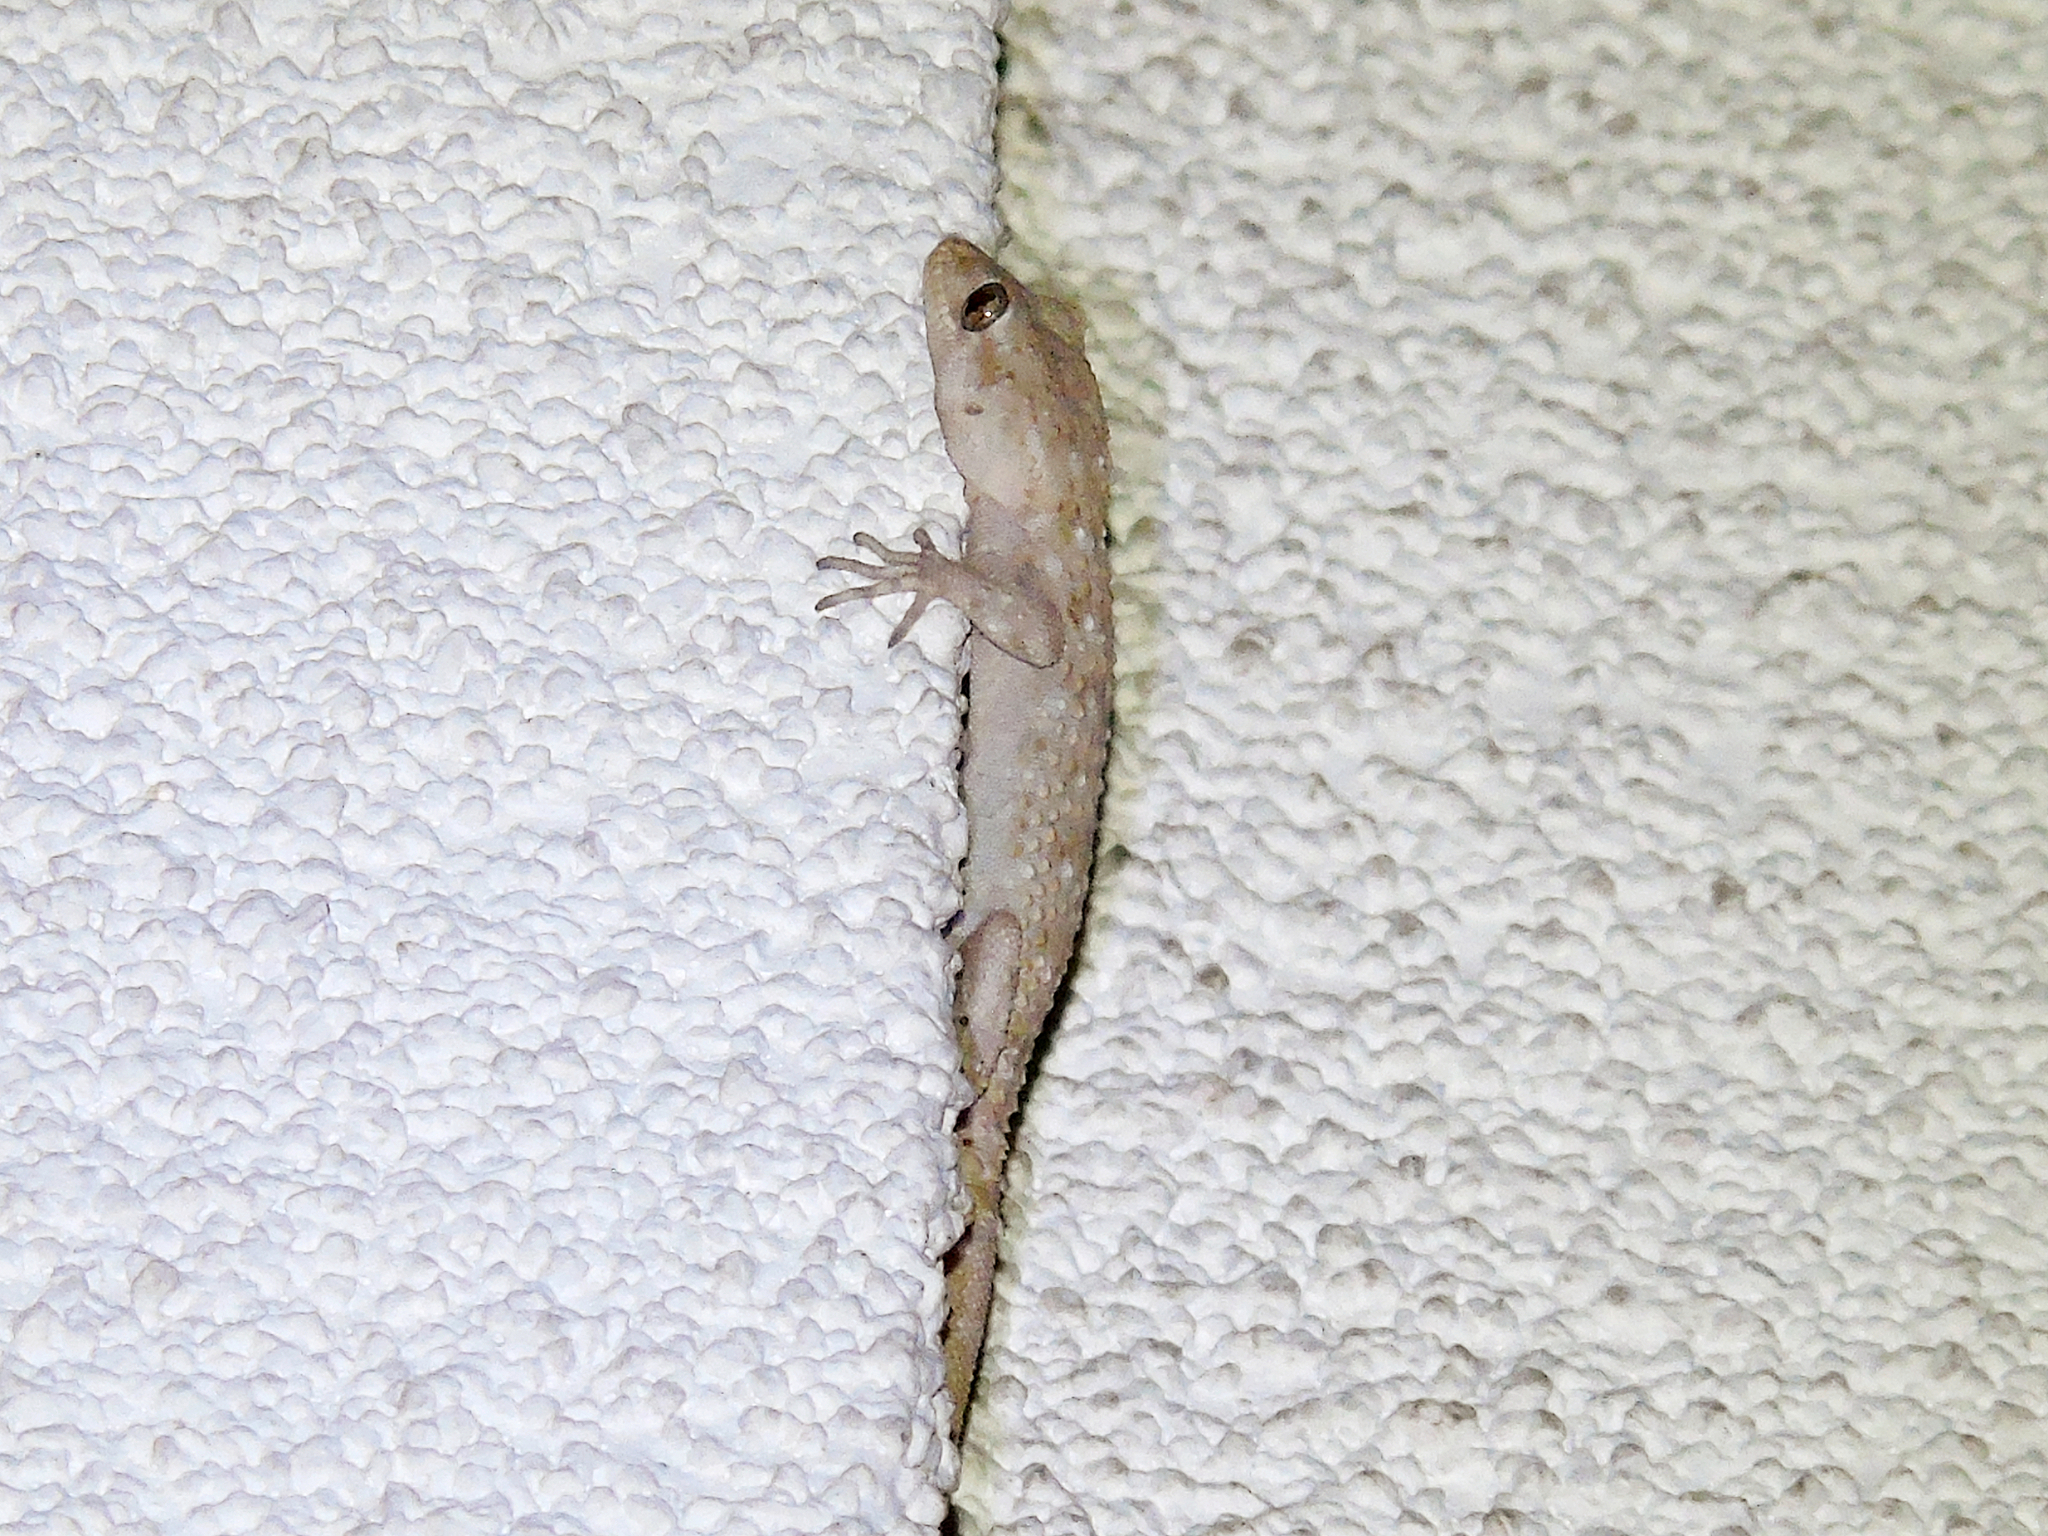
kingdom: Animalia
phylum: Chordata
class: Squamata
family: Gekkonidae
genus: Mediodactylus
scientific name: Mediodactylus kotschyi
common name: Kotschy's gecko
